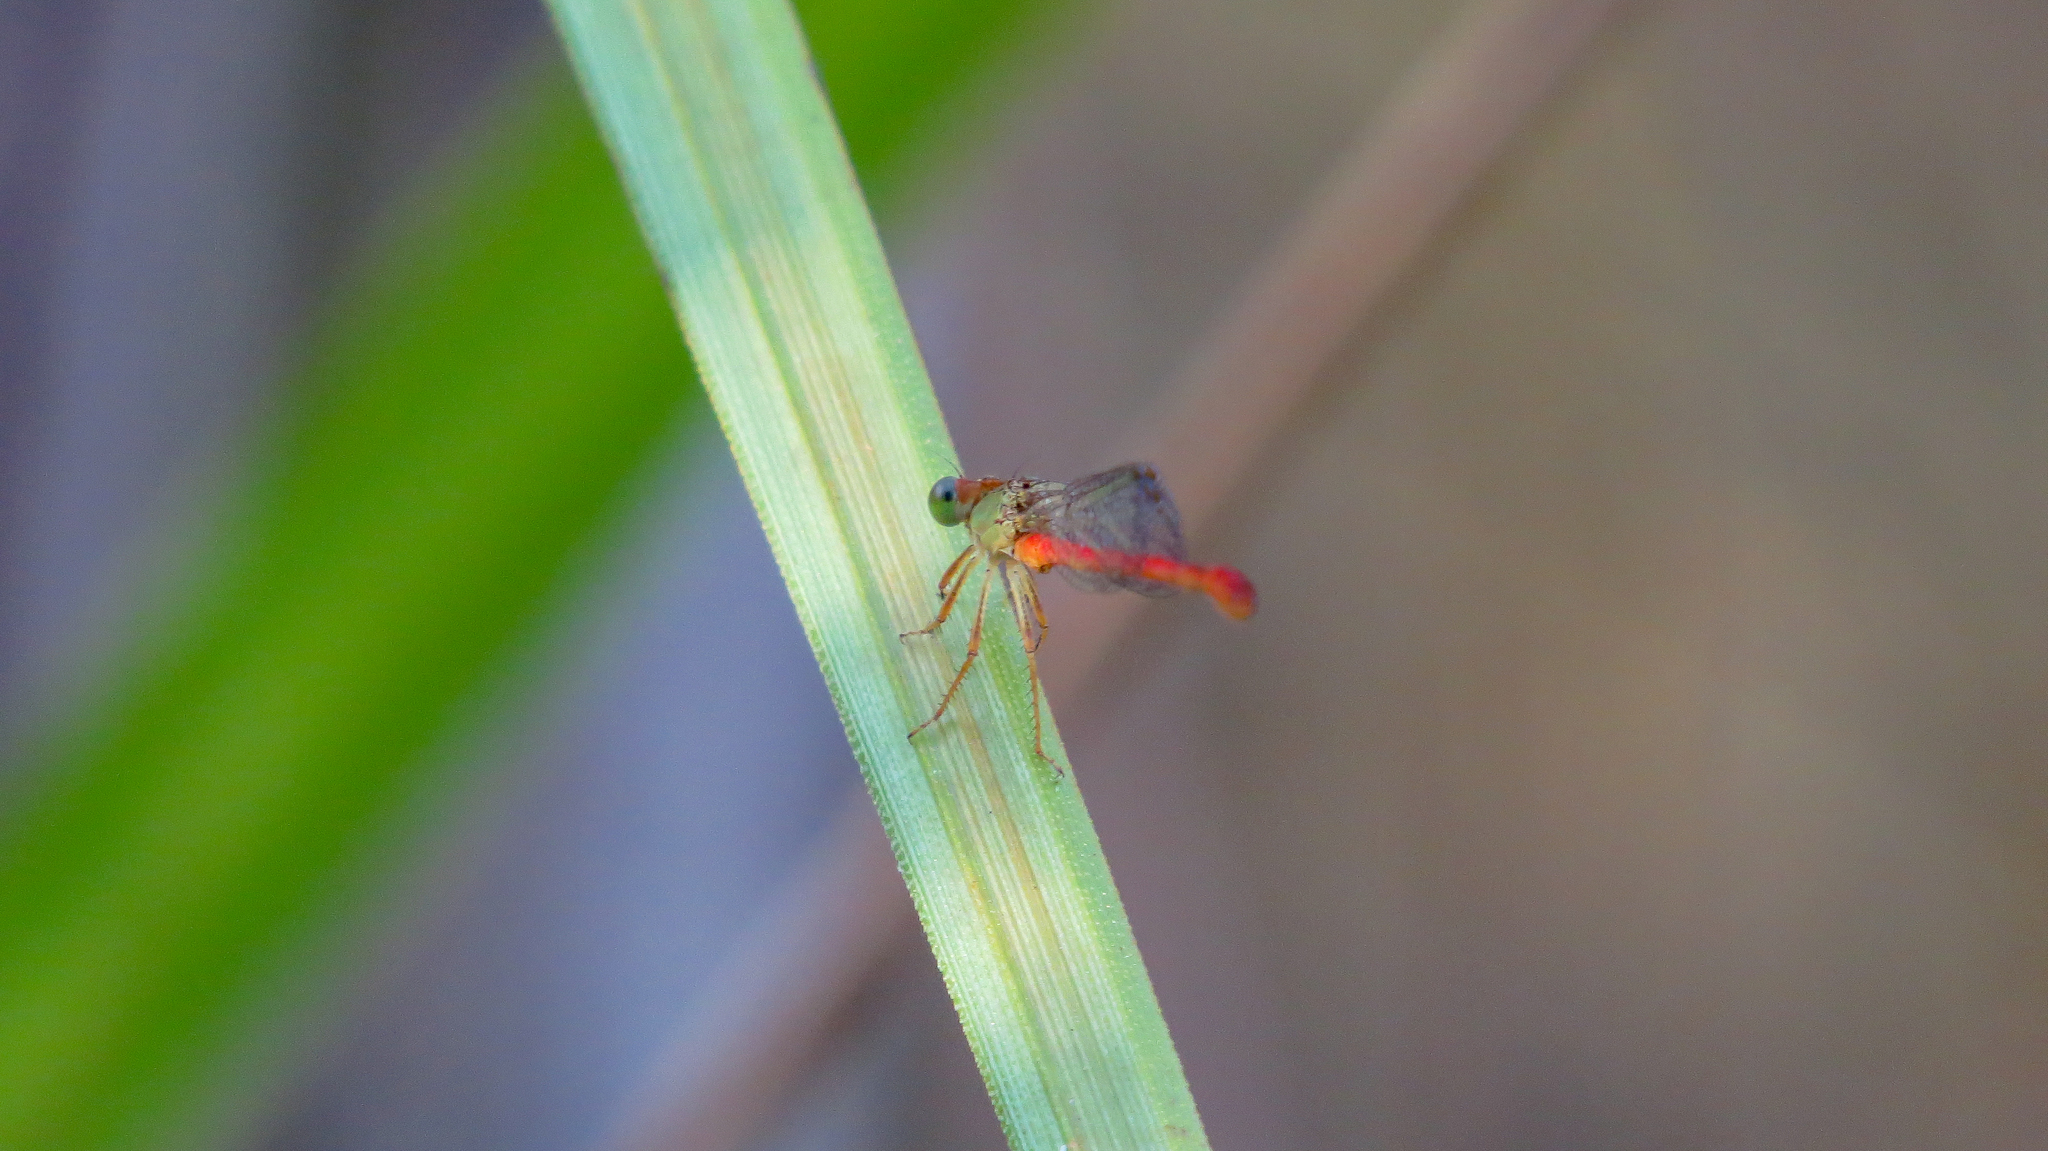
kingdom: Animalia
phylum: Arthropoda
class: Insecta
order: Odonata
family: Coenagrionidae
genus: Ceriagrion
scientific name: Ceriagrion aeruginosum
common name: Redtail
